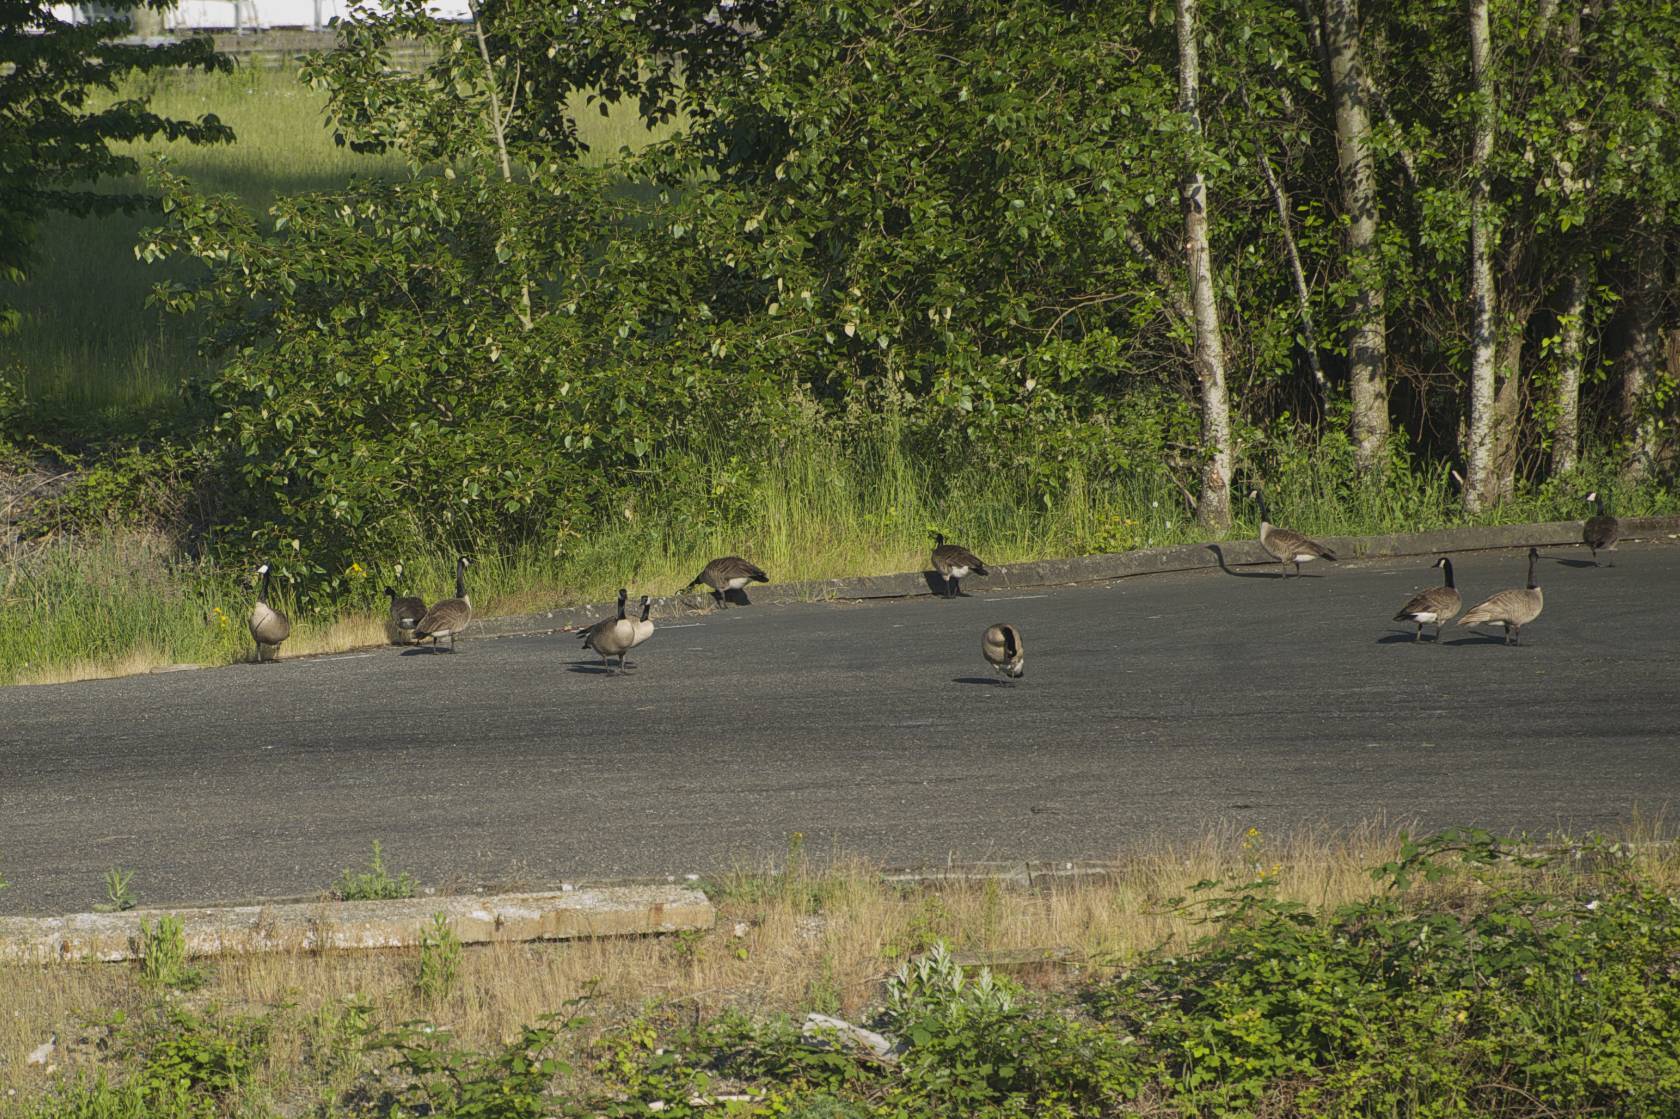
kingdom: Animalia
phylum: Chordata
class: Aves
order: Anseriformes
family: Anatidae
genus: Branta
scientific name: Branta canadensis
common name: Canada goose
